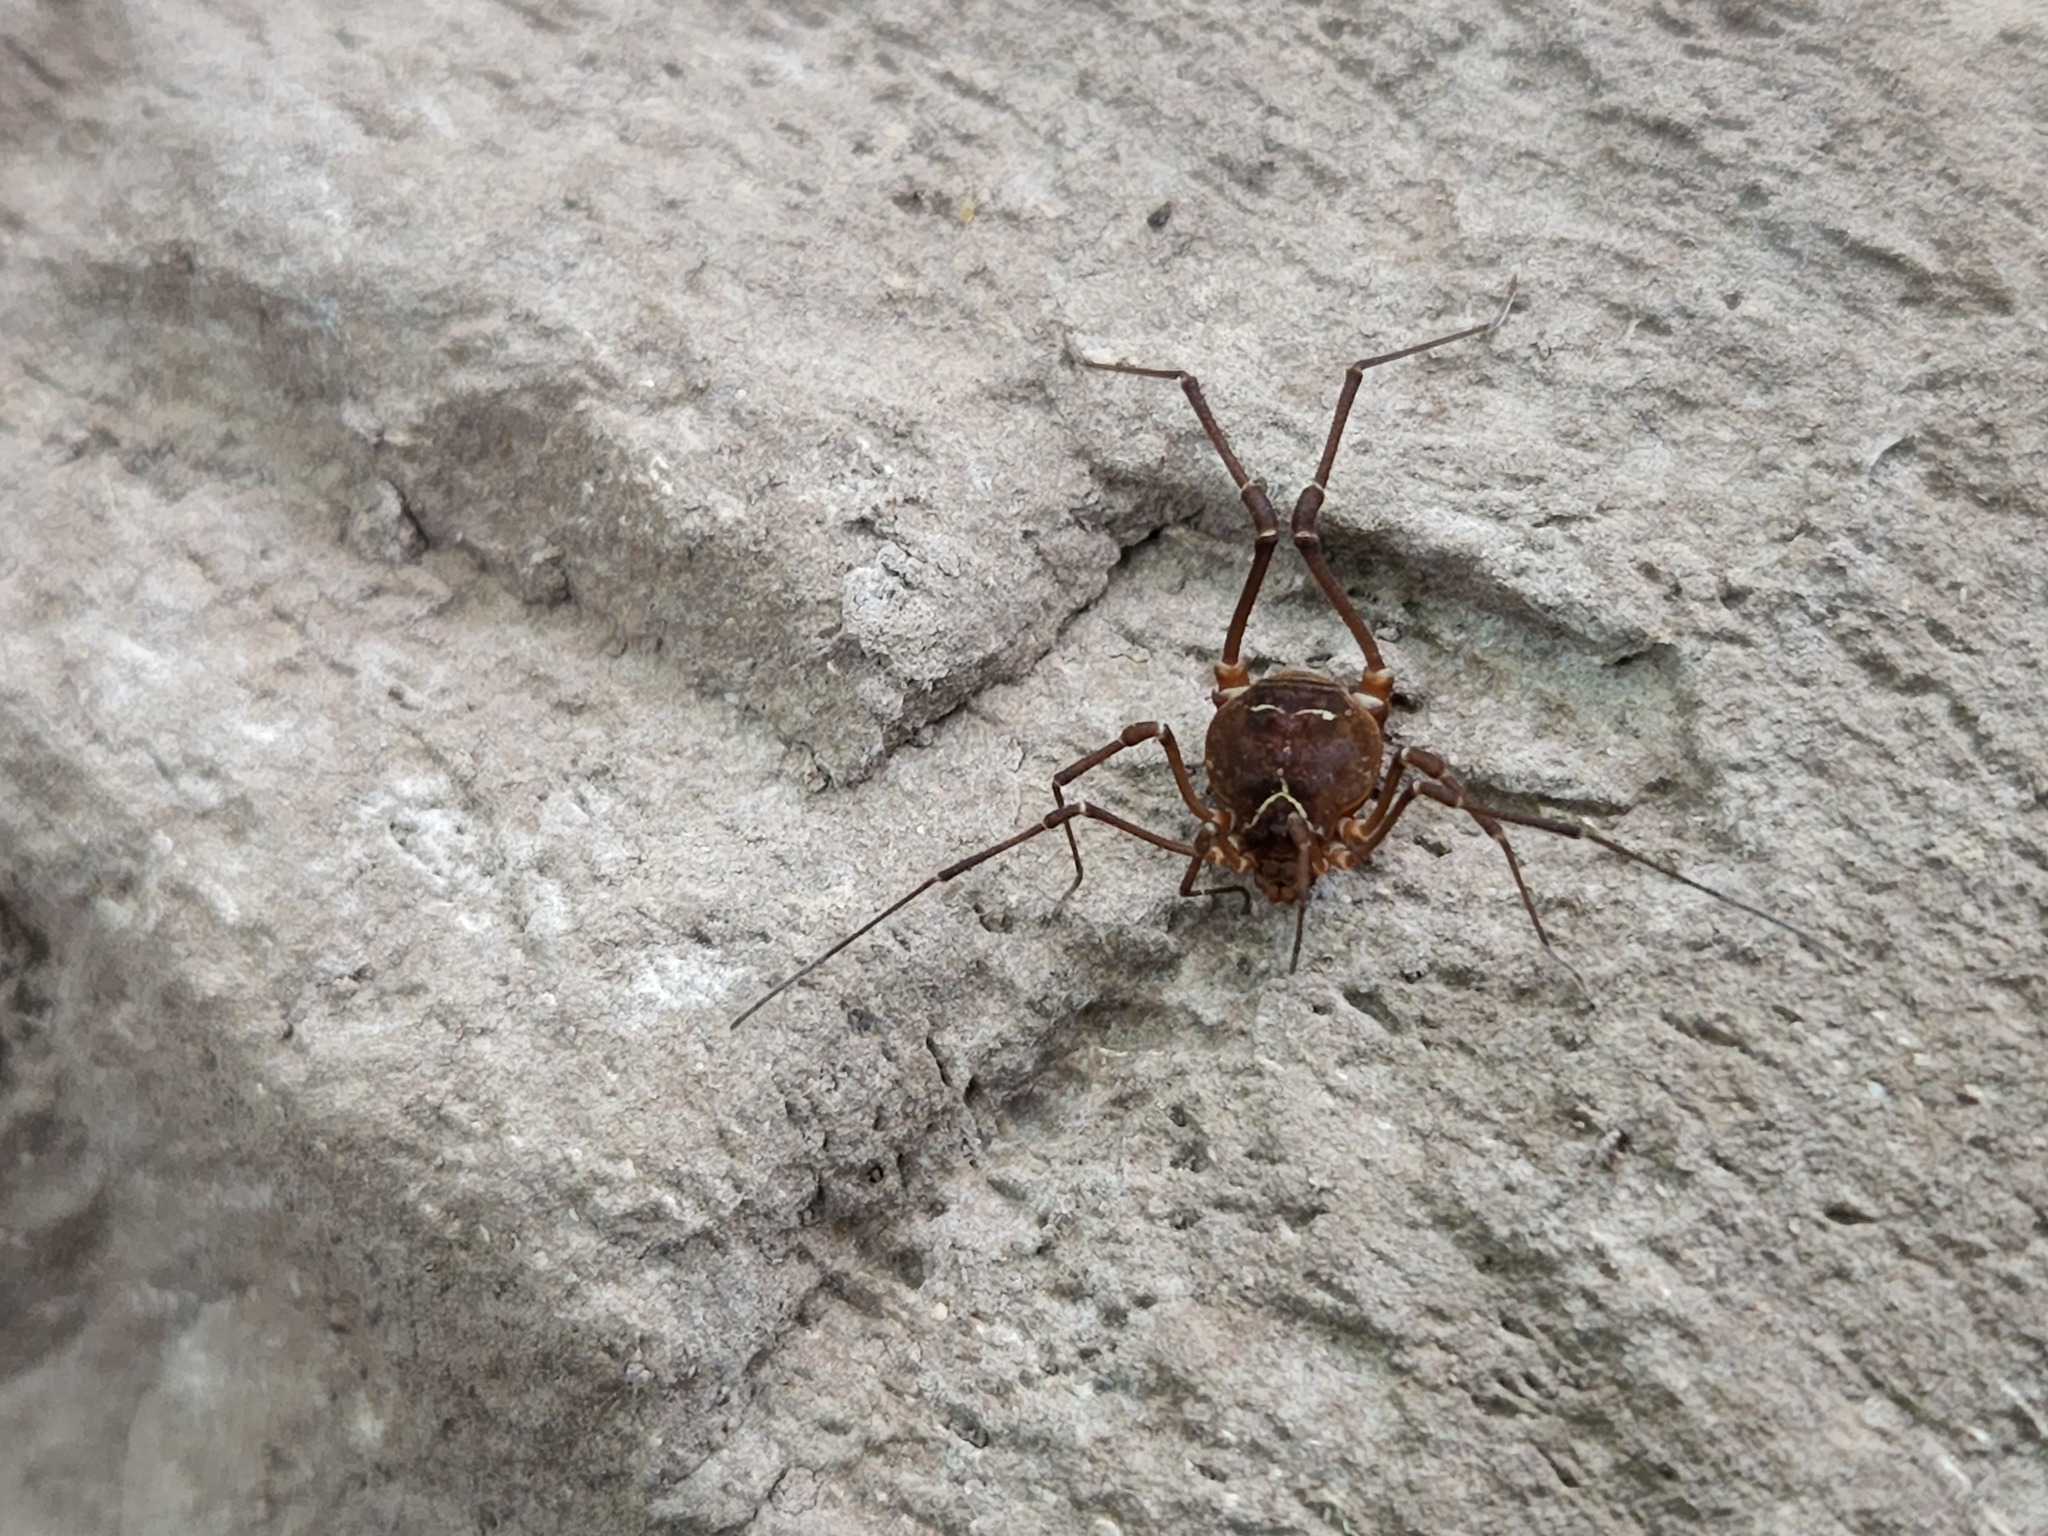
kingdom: Animalia
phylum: Arthropoda
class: Arachnida
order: Opiliones
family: Cosmetidae
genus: Libitioides
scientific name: Libitioides sayi
